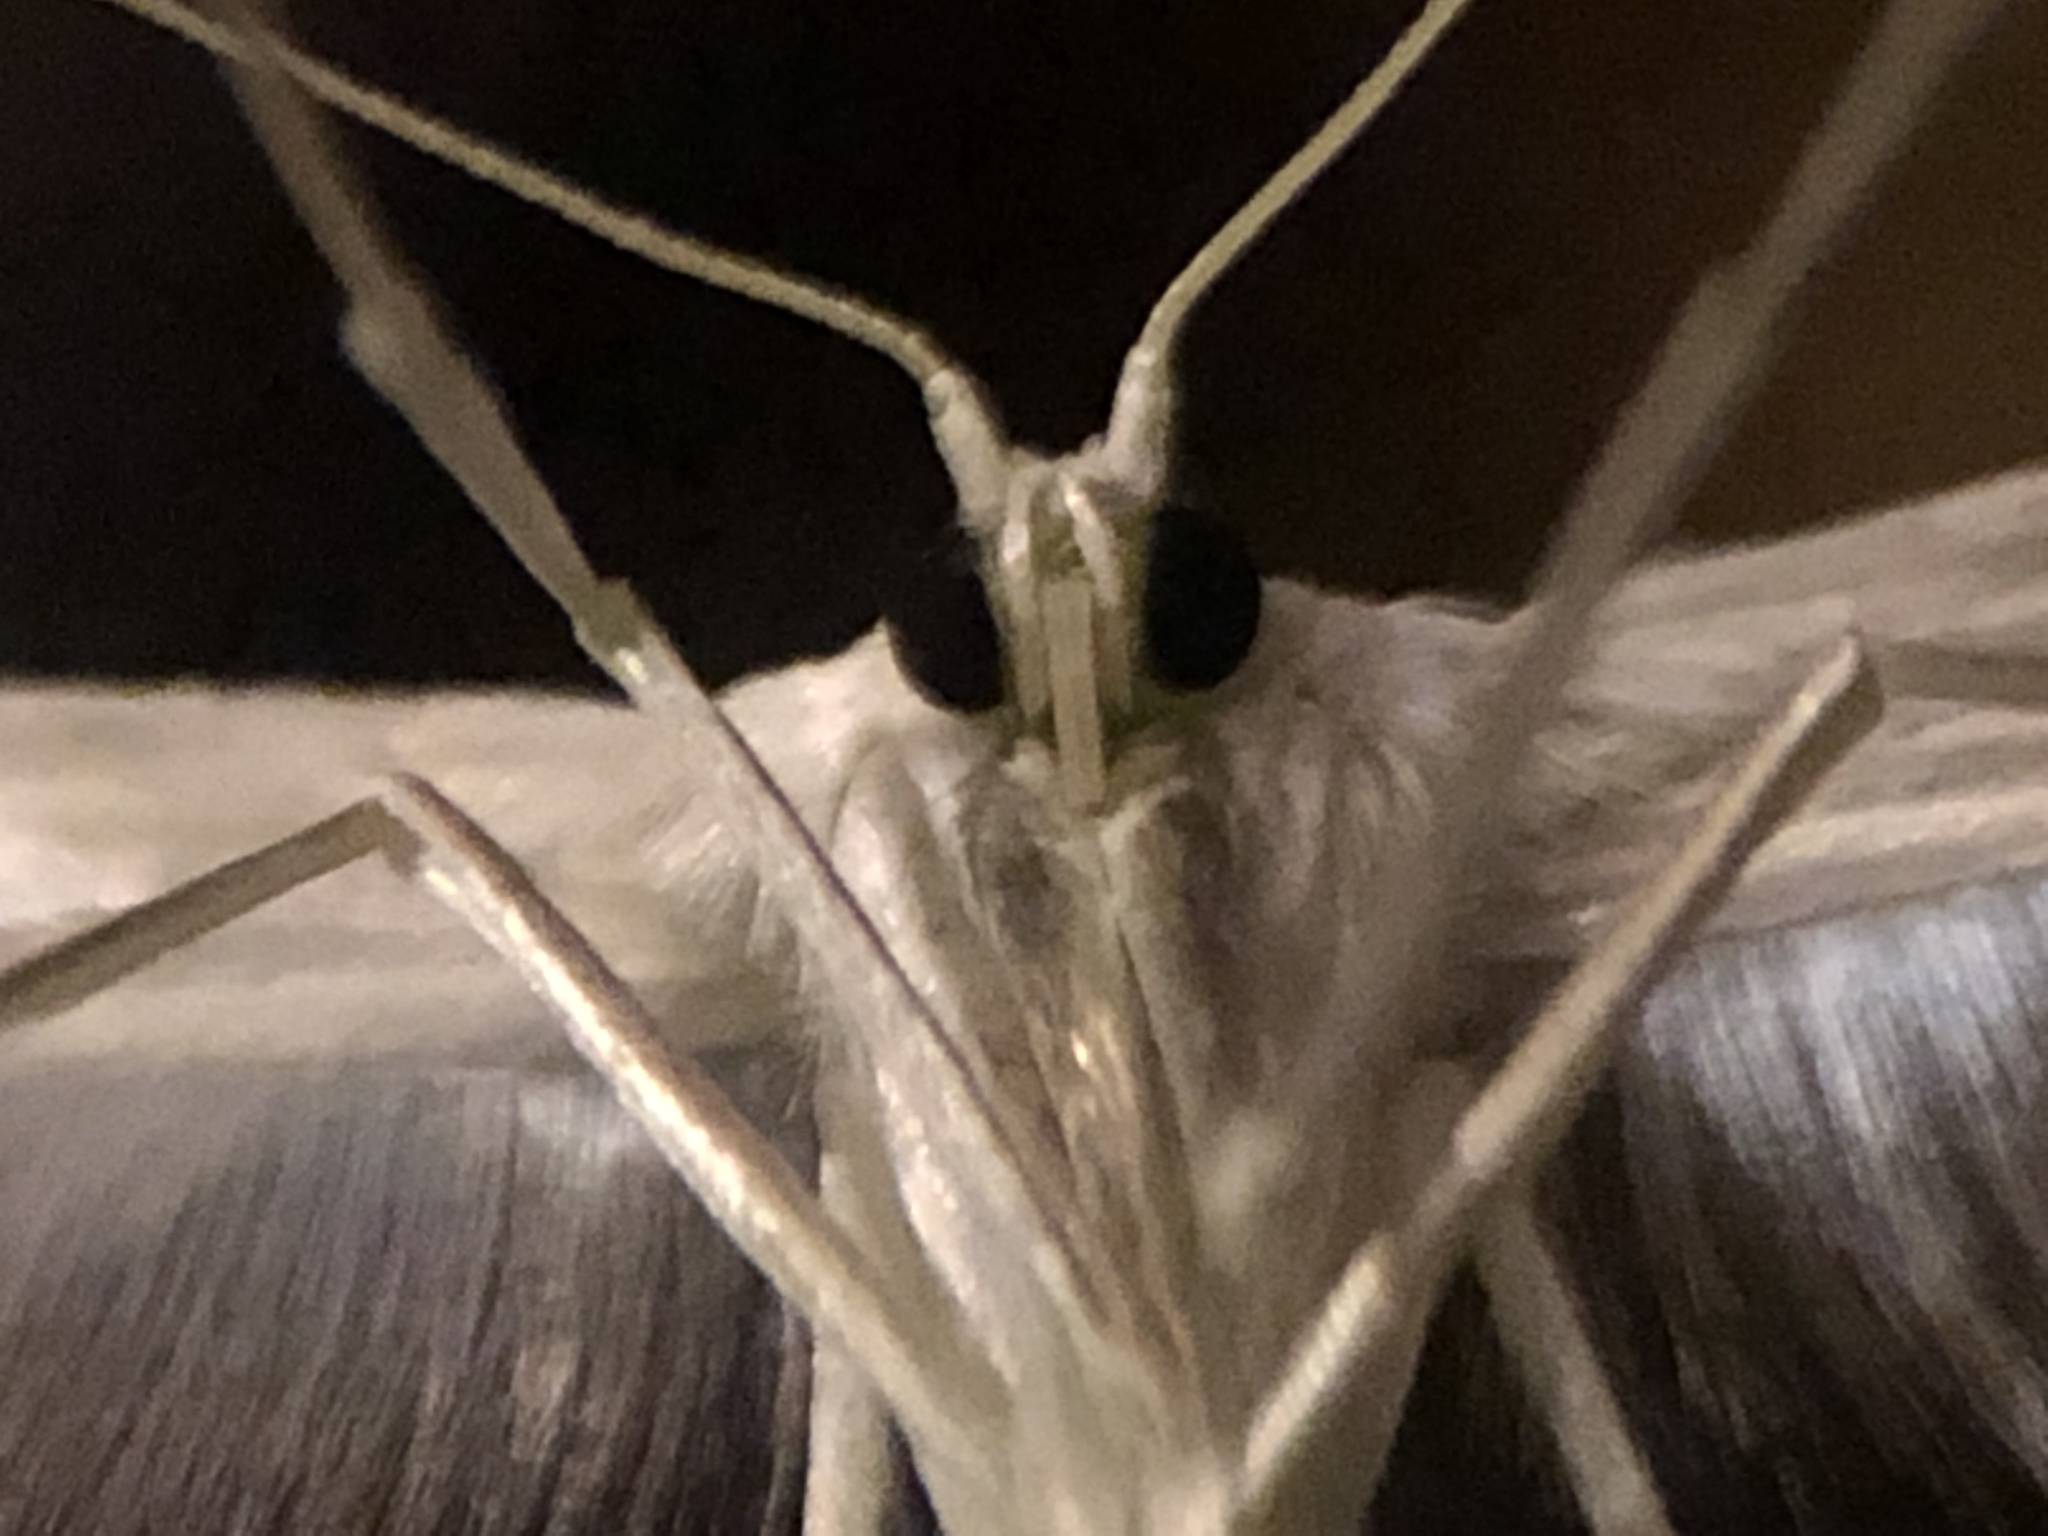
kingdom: Animalia
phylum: Arthropoda
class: Insecta
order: Lepidoptera
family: Pterophoridae
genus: Pterophorus
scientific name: Pterophorus pentadactyla
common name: White plume moth
